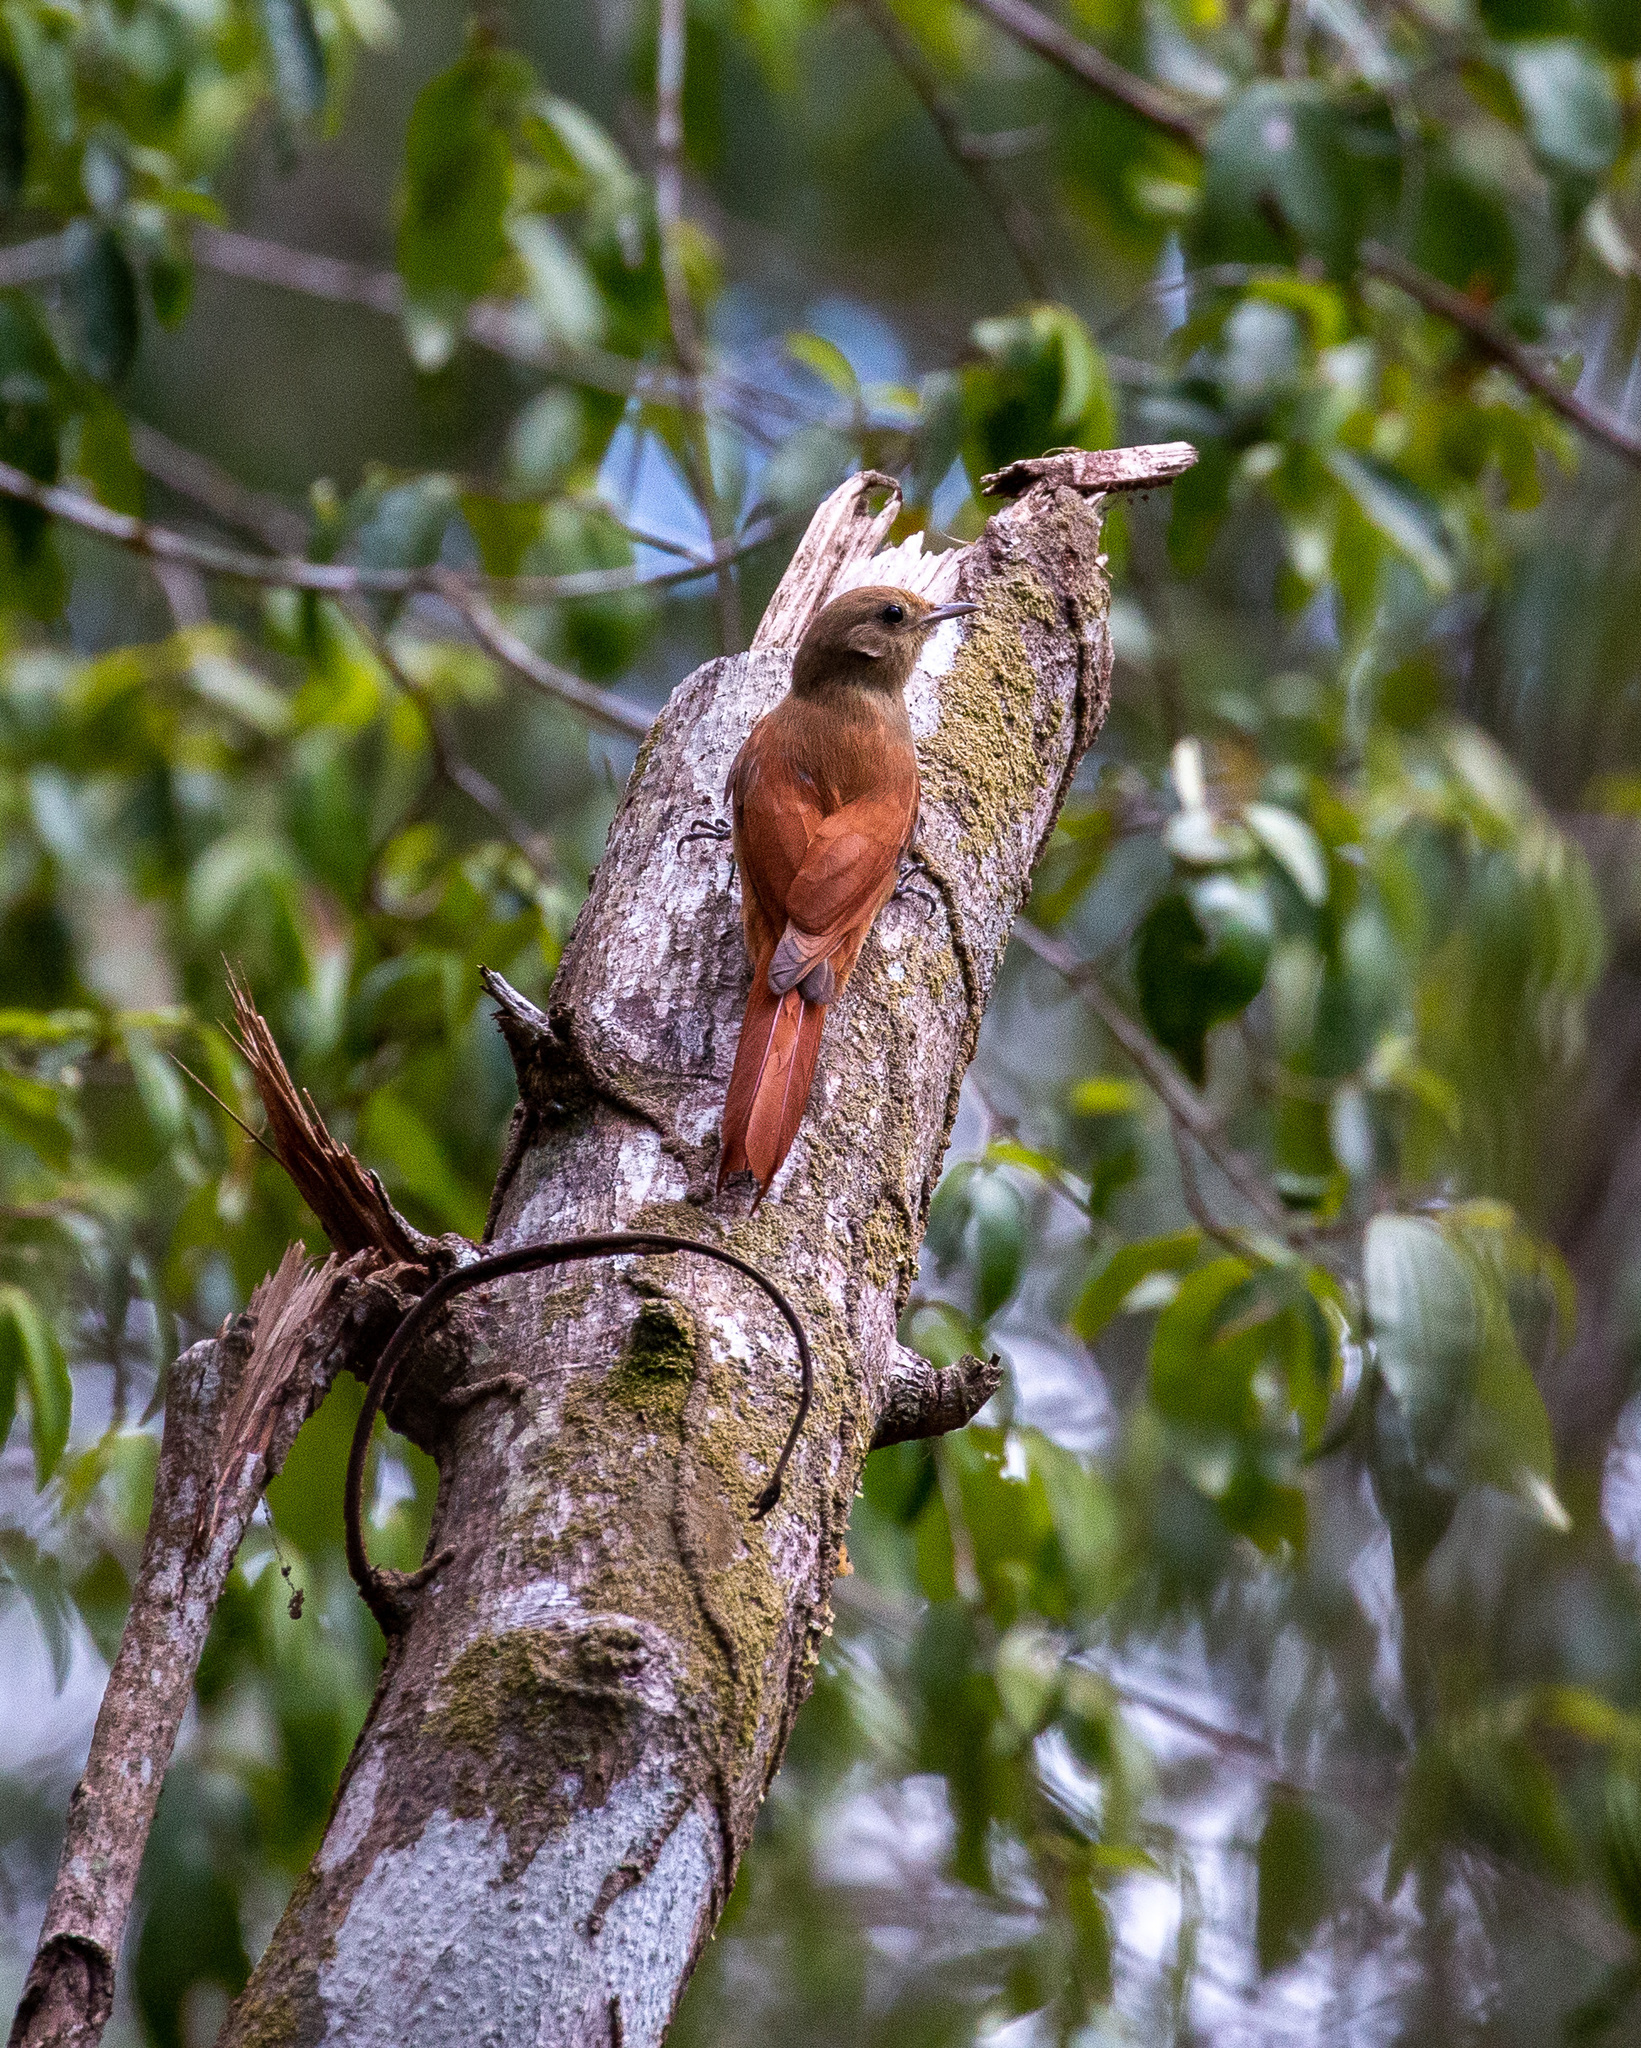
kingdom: Animalia
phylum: Chordata
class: Aves
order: Passeriformes
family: Furnariidae
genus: Sittasomus
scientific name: Sittasomus griseicapillus
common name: Olivaceous woodcreeper
